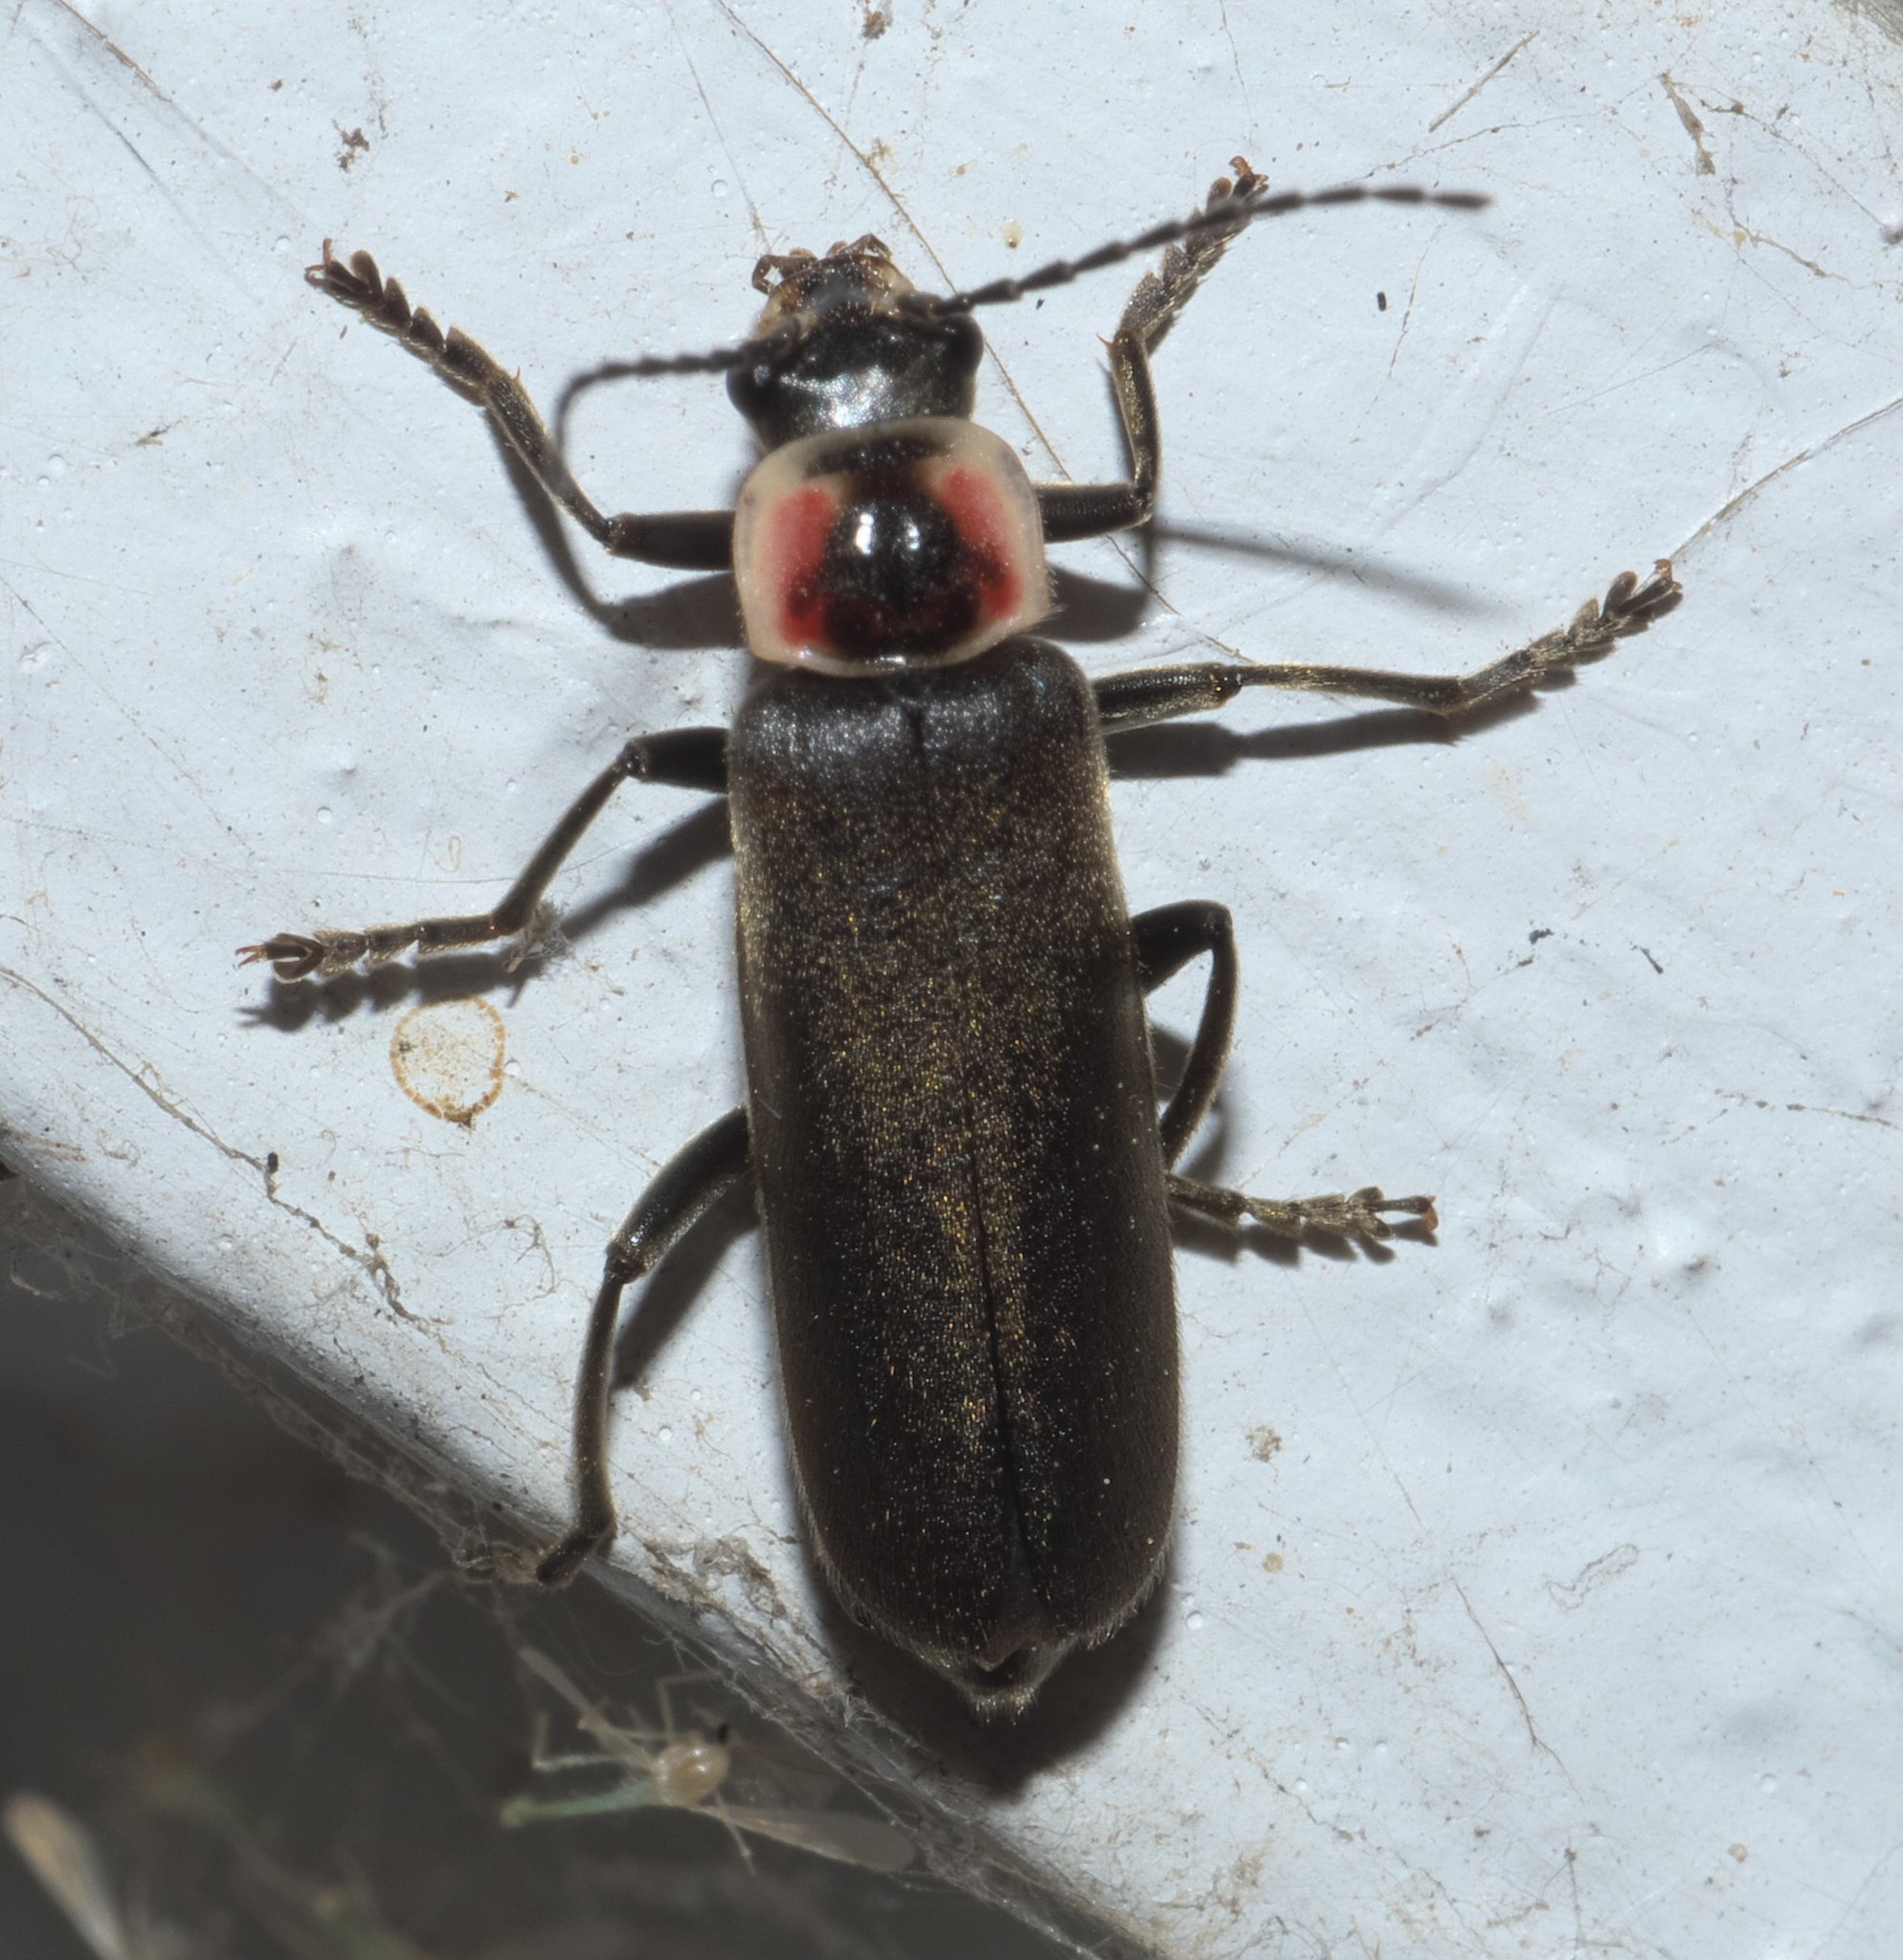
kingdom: Animalia
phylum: Arthropoda
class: Insecta
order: Coleoptera
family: Cantharidae
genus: Rhaxonycha
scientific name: Rhaxonycha bilobata
